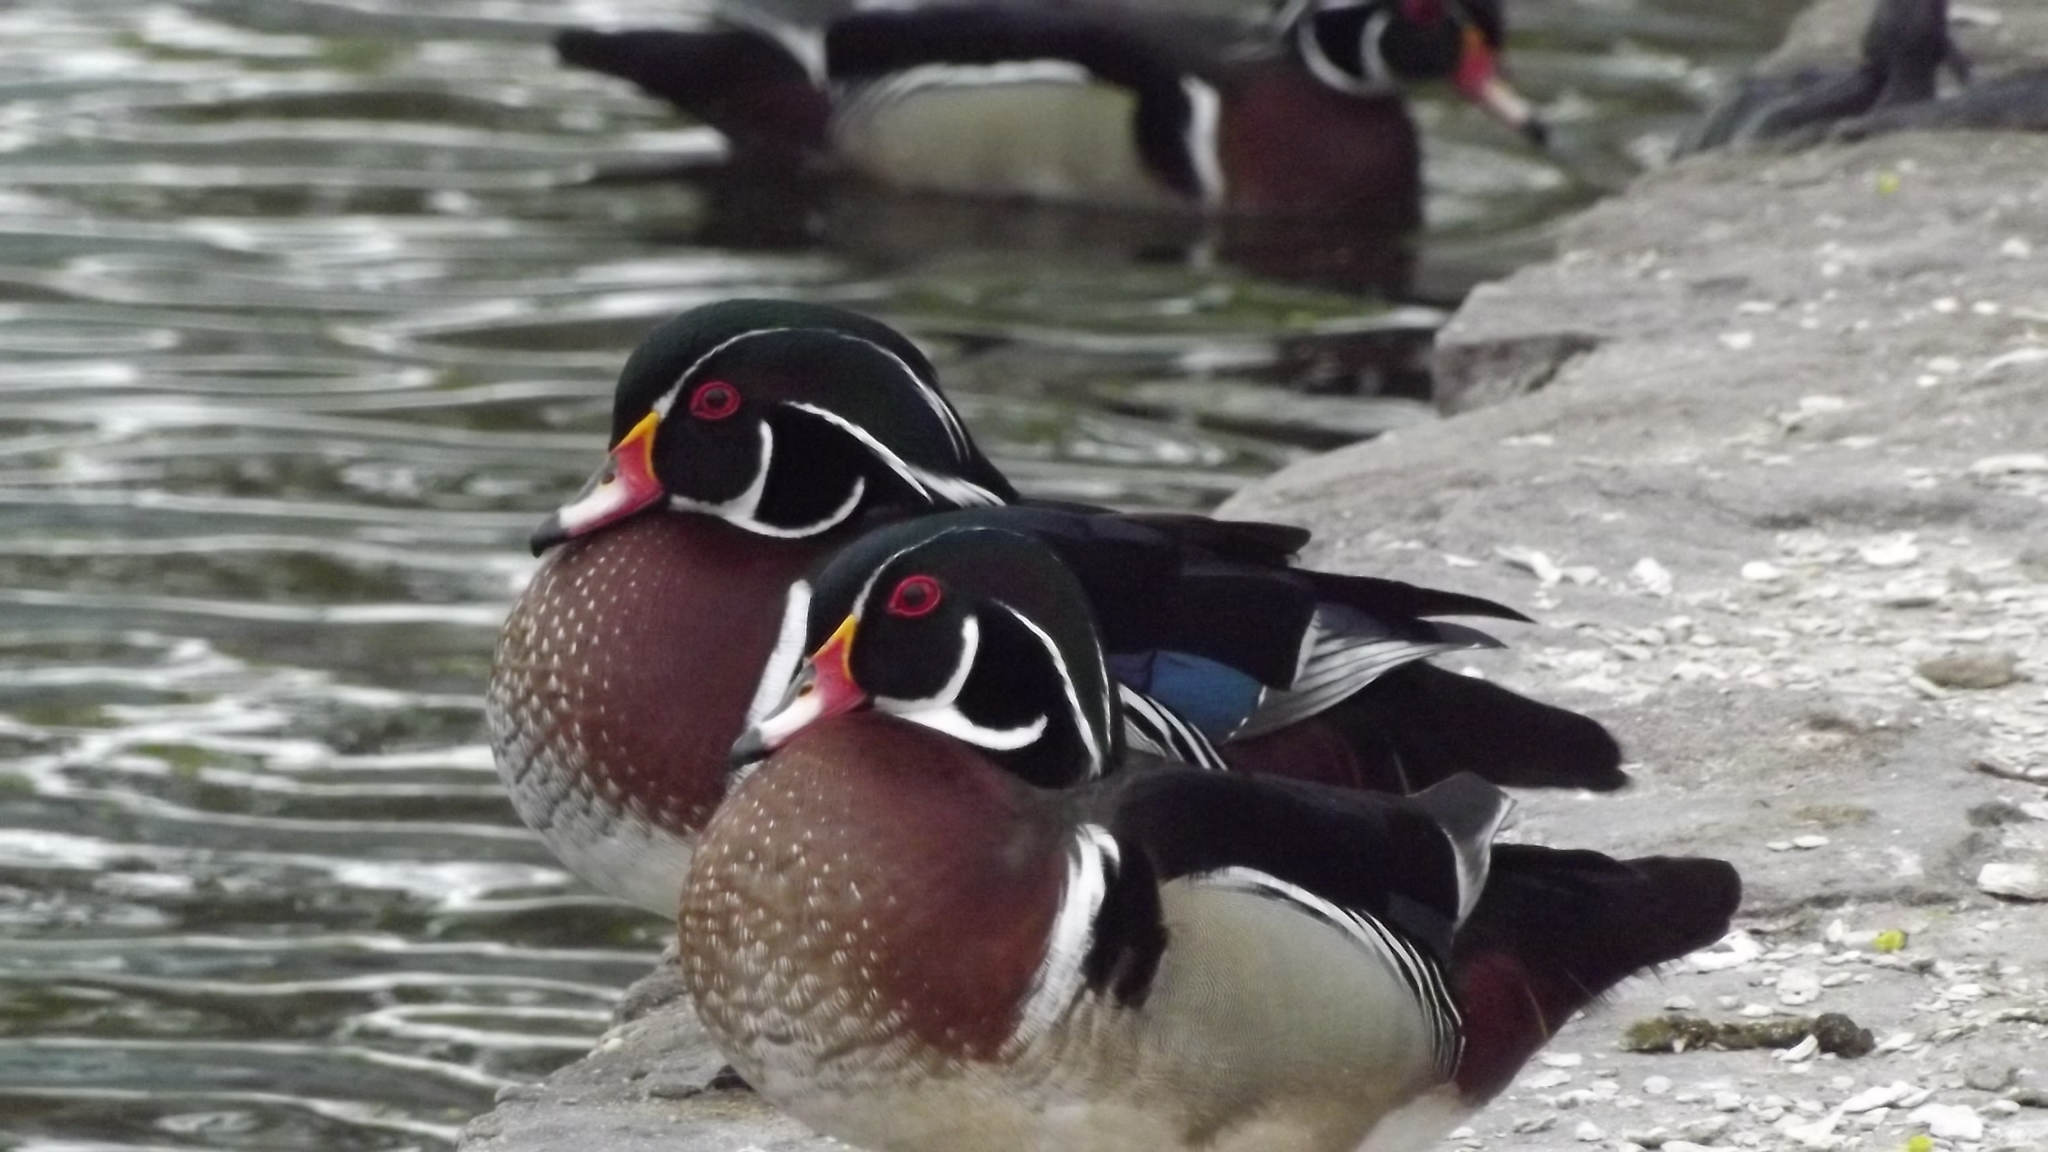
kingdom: Animalia
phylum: Chordata
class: Aves
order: Anseriformes
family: Anatidae
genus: Aix
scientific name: Aix sponsa
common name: Wood duck
